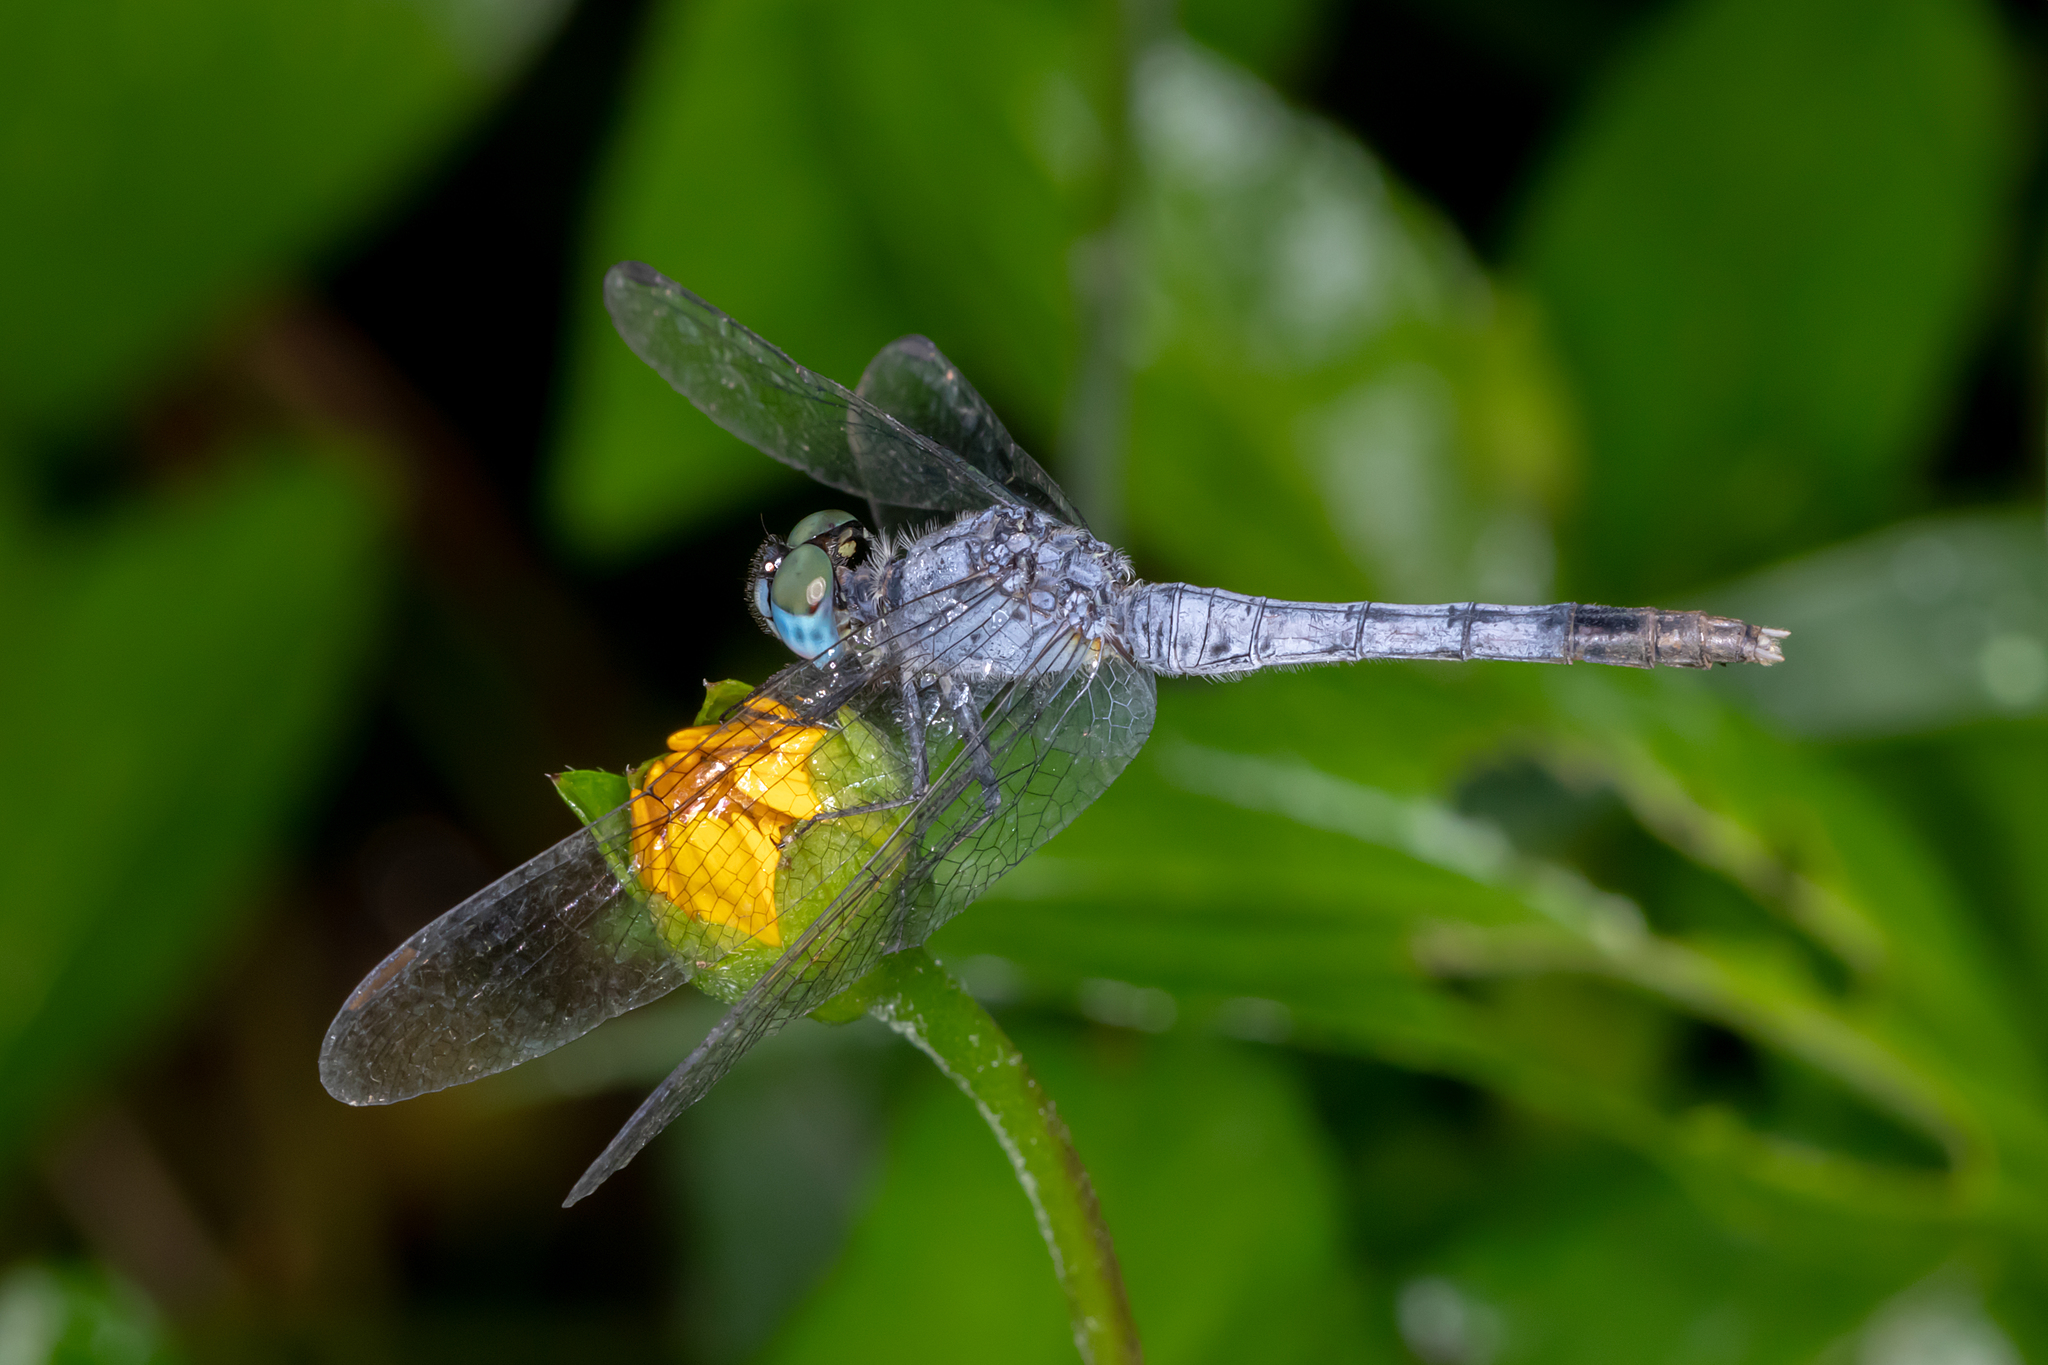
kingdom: Animalia
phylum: Arthropoda
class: Insecta
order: Odonata
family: Libellulidae
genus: Diplacodes
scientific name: Diplacodes trivialis
